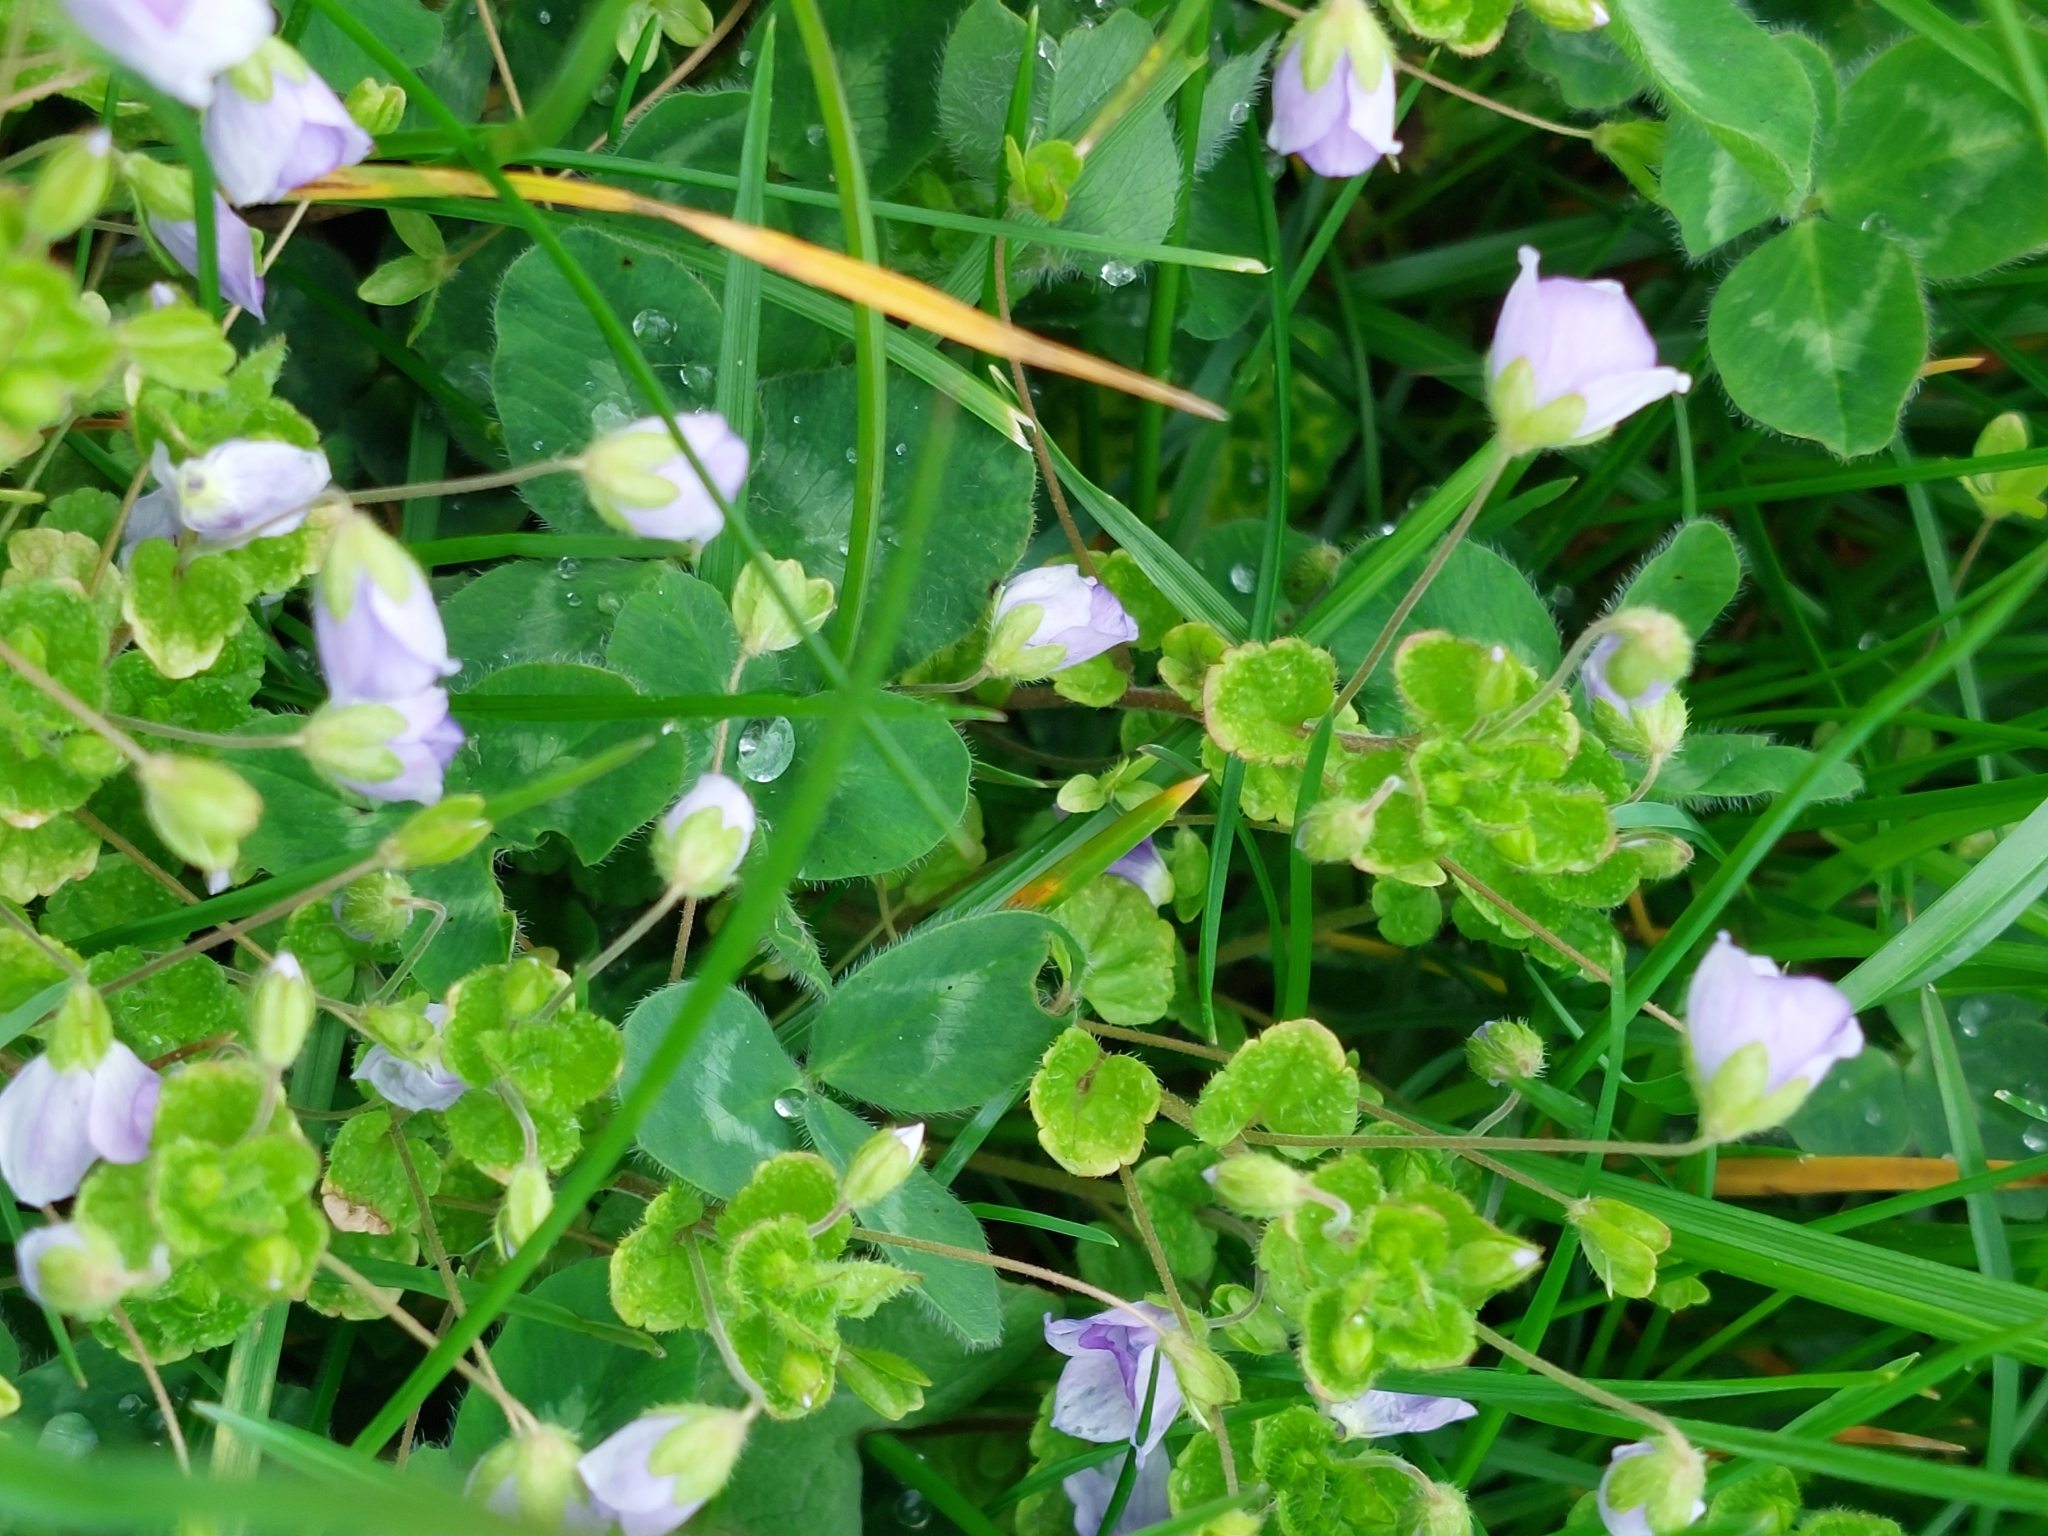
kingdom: Plantae
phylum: Tracheophyta
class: Magnoliopsida
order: Lamiales
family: Plantaginaceae
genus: Veronica
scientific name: Veronica filiformis
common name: Slender speedwell
